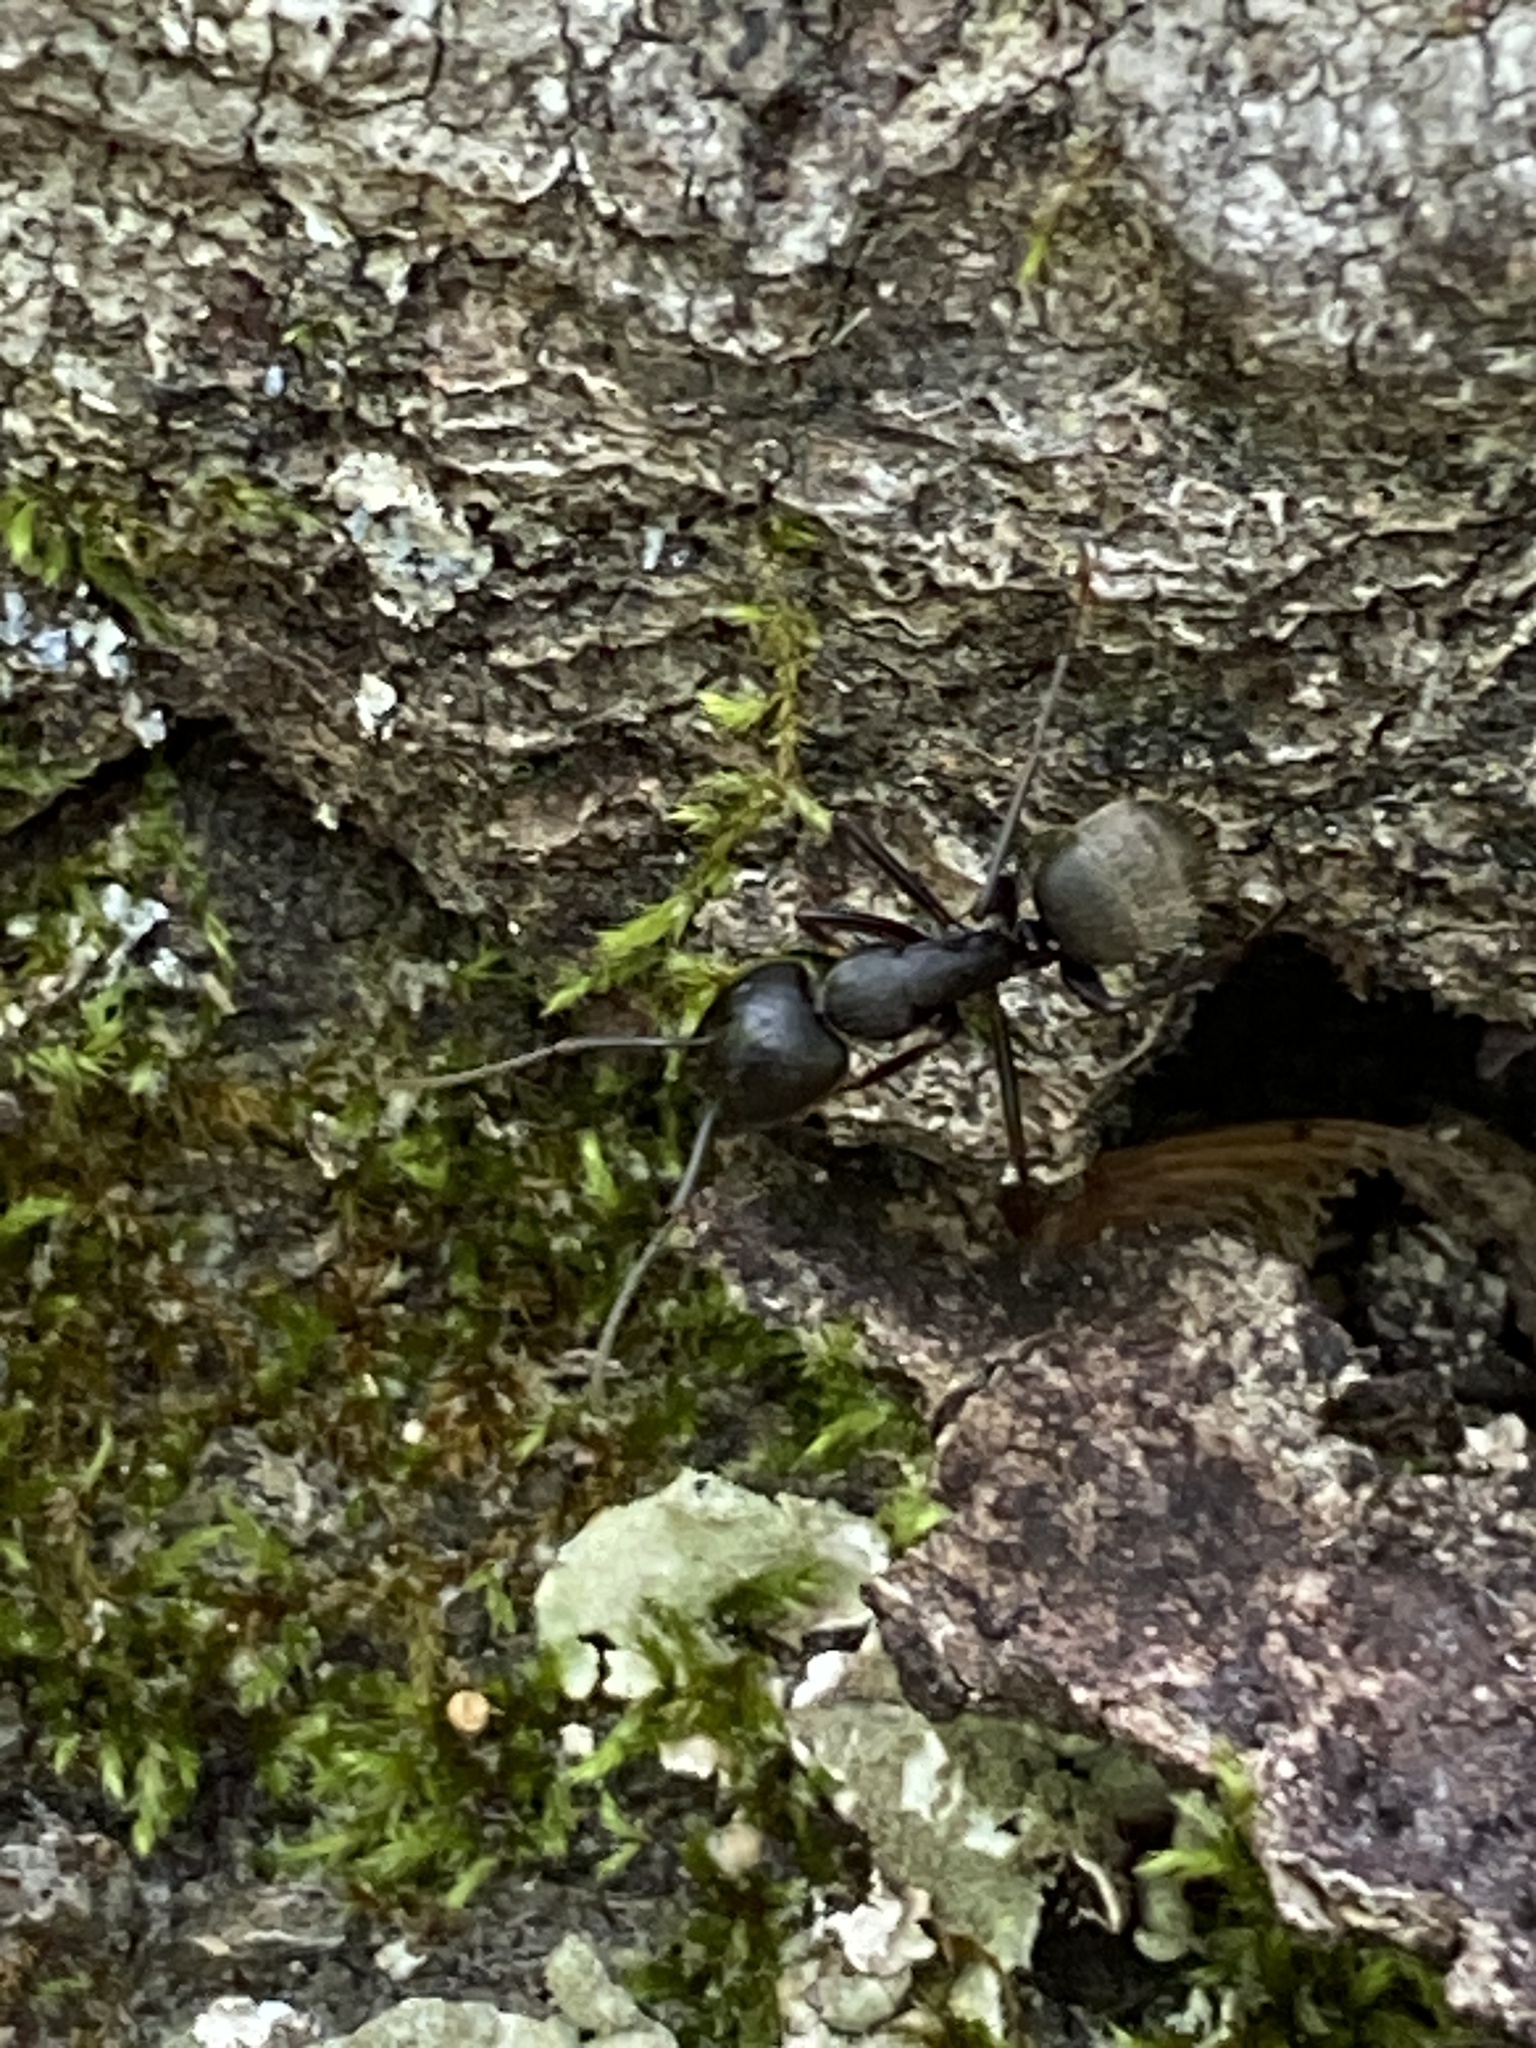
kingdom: Animalia
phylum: Arthropoda
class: Insecta
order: Hymenoptera
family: Formicidae
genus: Camponotus
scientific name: Camponotus pennsylvanicus
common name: Black carpenter ant
